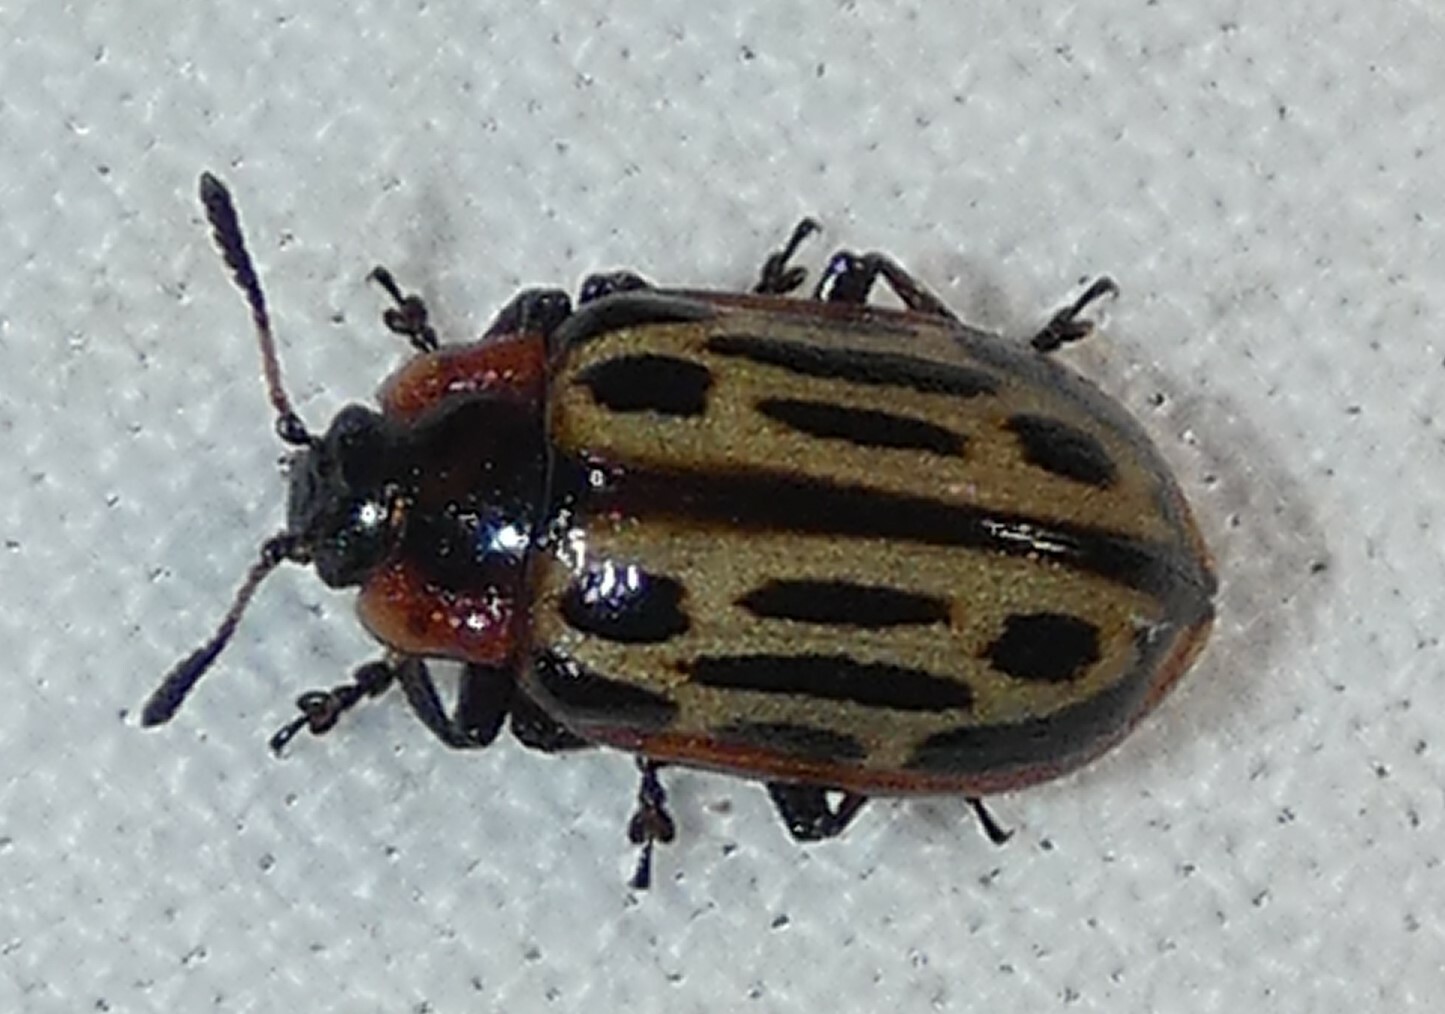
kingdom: Animalia
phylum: Arthropoda
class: Insecta
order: Coleoptera
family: Chrysomelidae
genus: Aethiopocassis
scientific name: Aethiopocassis scripta
